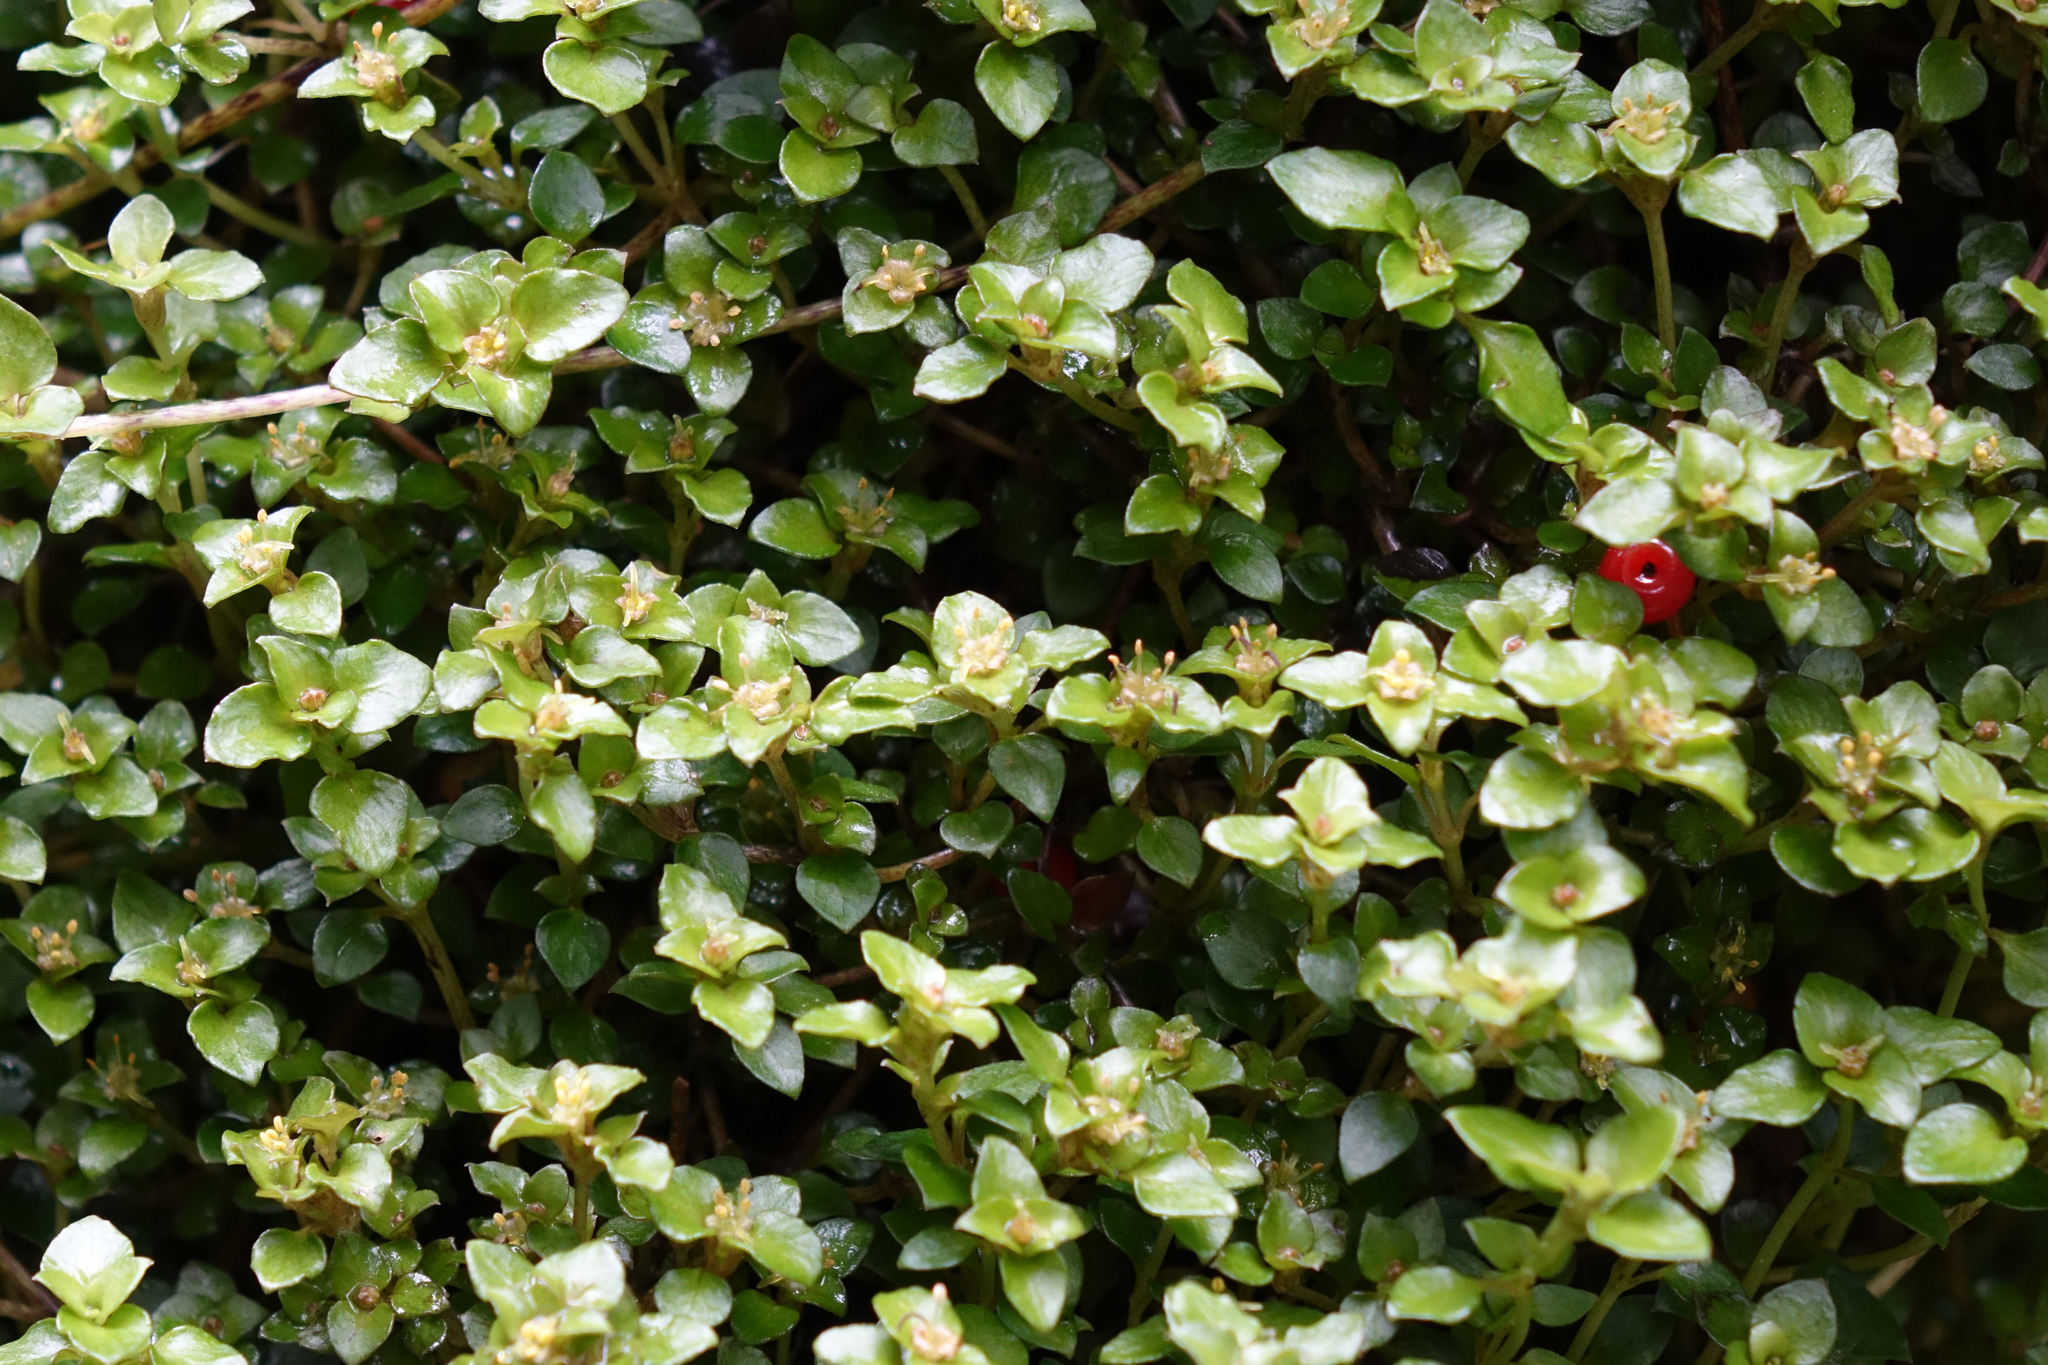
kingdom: Plantae
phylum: Tracheophyta
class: Magnoliopsida
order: Gentianales
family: Rubiaceae
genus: Nertera
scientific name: Nertera granadensis
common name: Beadplant
